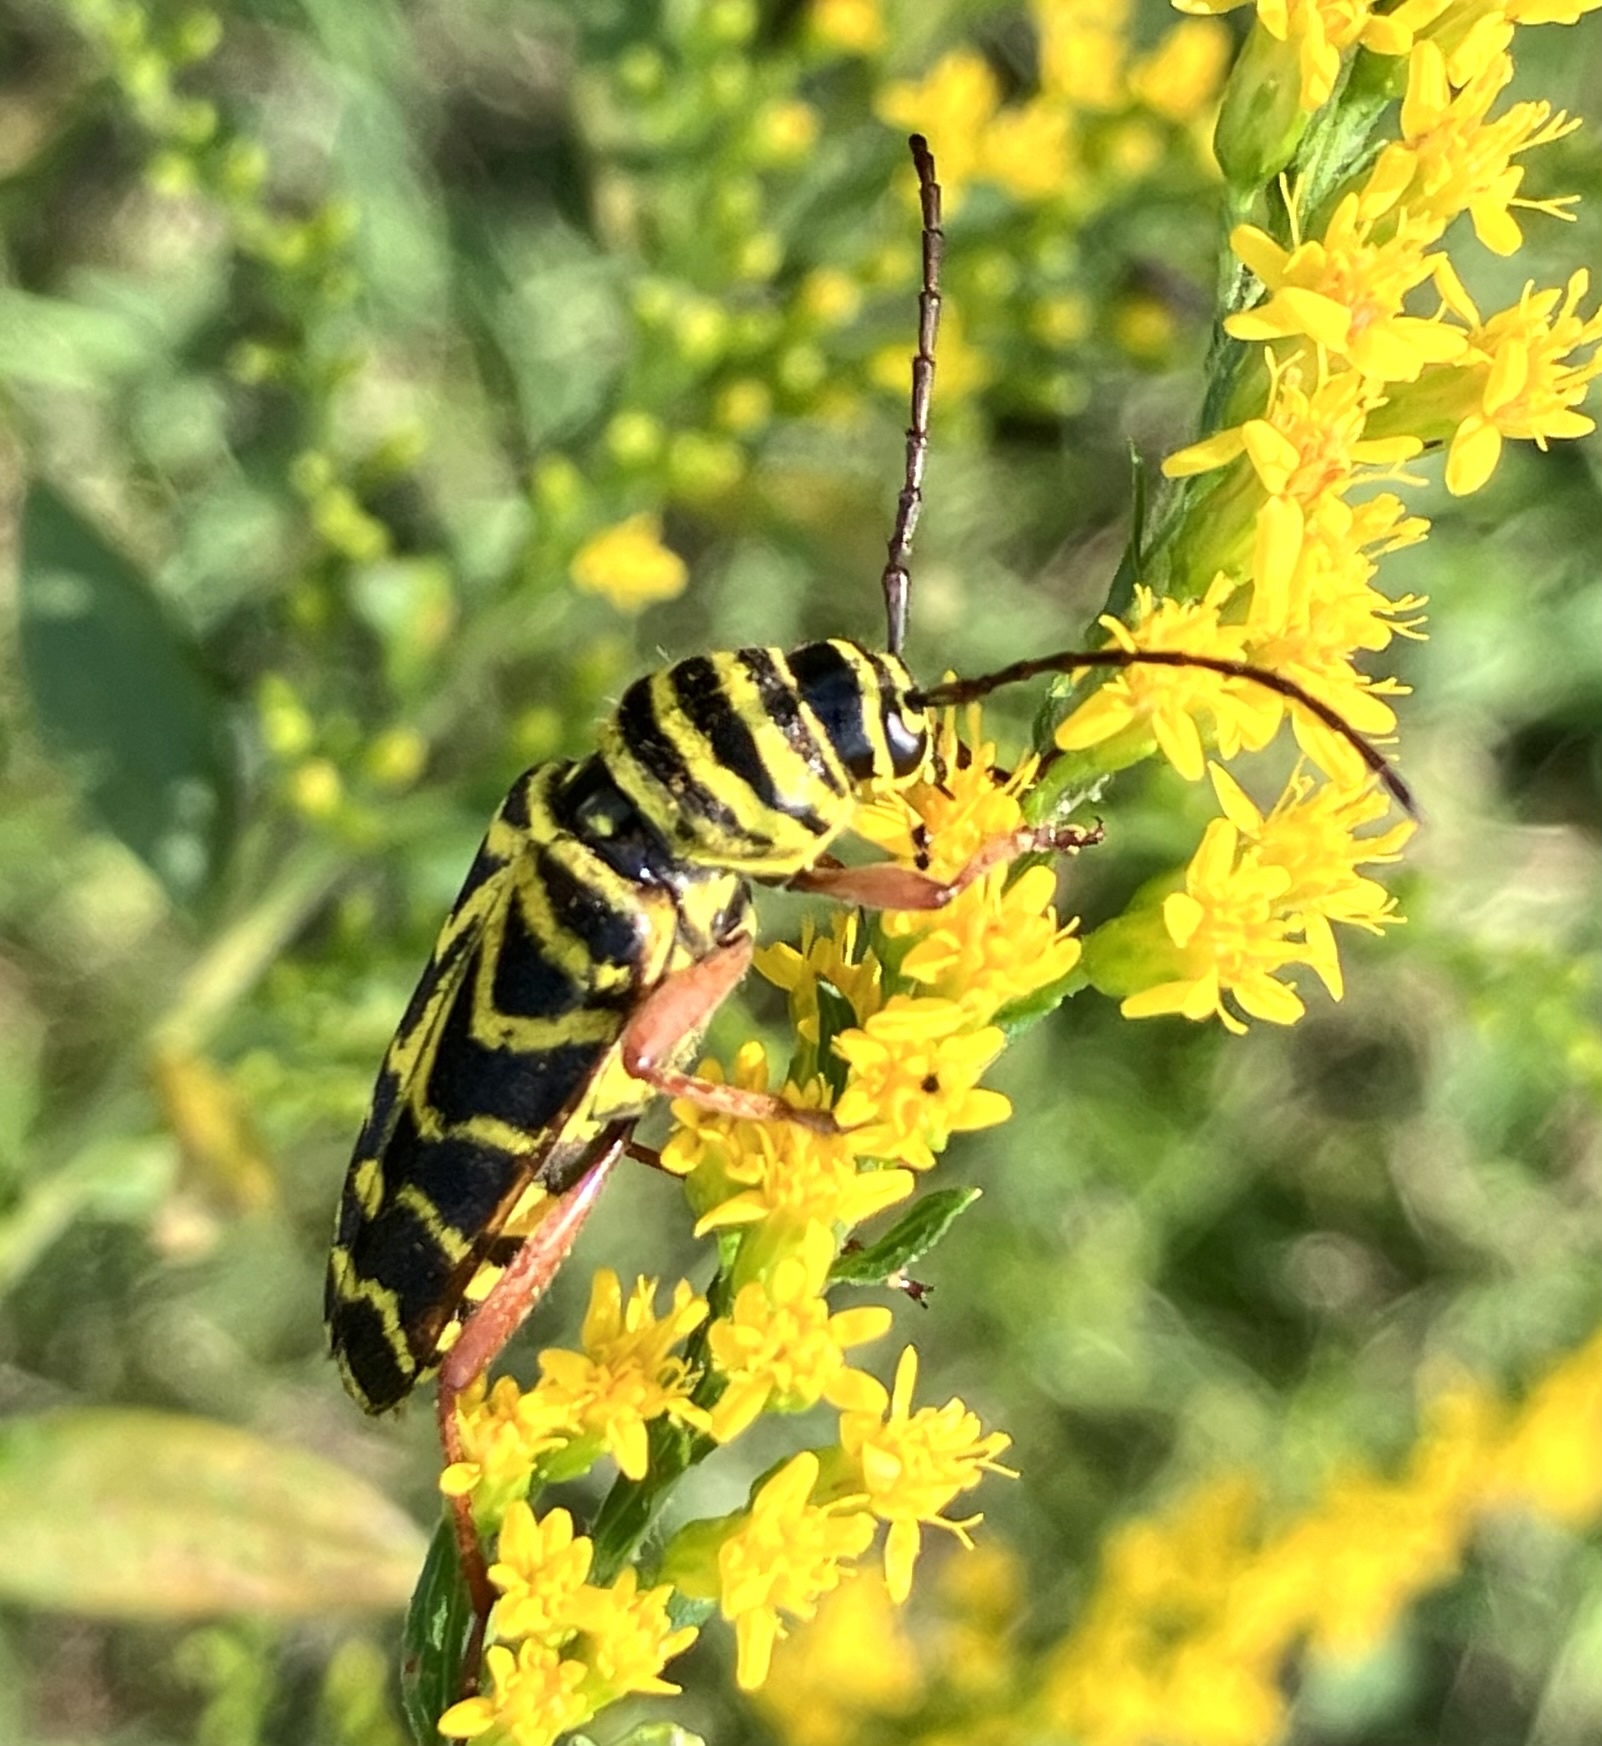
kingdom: Animalia
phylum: Arthropoda
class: Insecta
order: Coleoptera
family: Cerambycidae
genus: Megacyllene
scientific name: Megacyllene robiniae
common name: Locust borer
